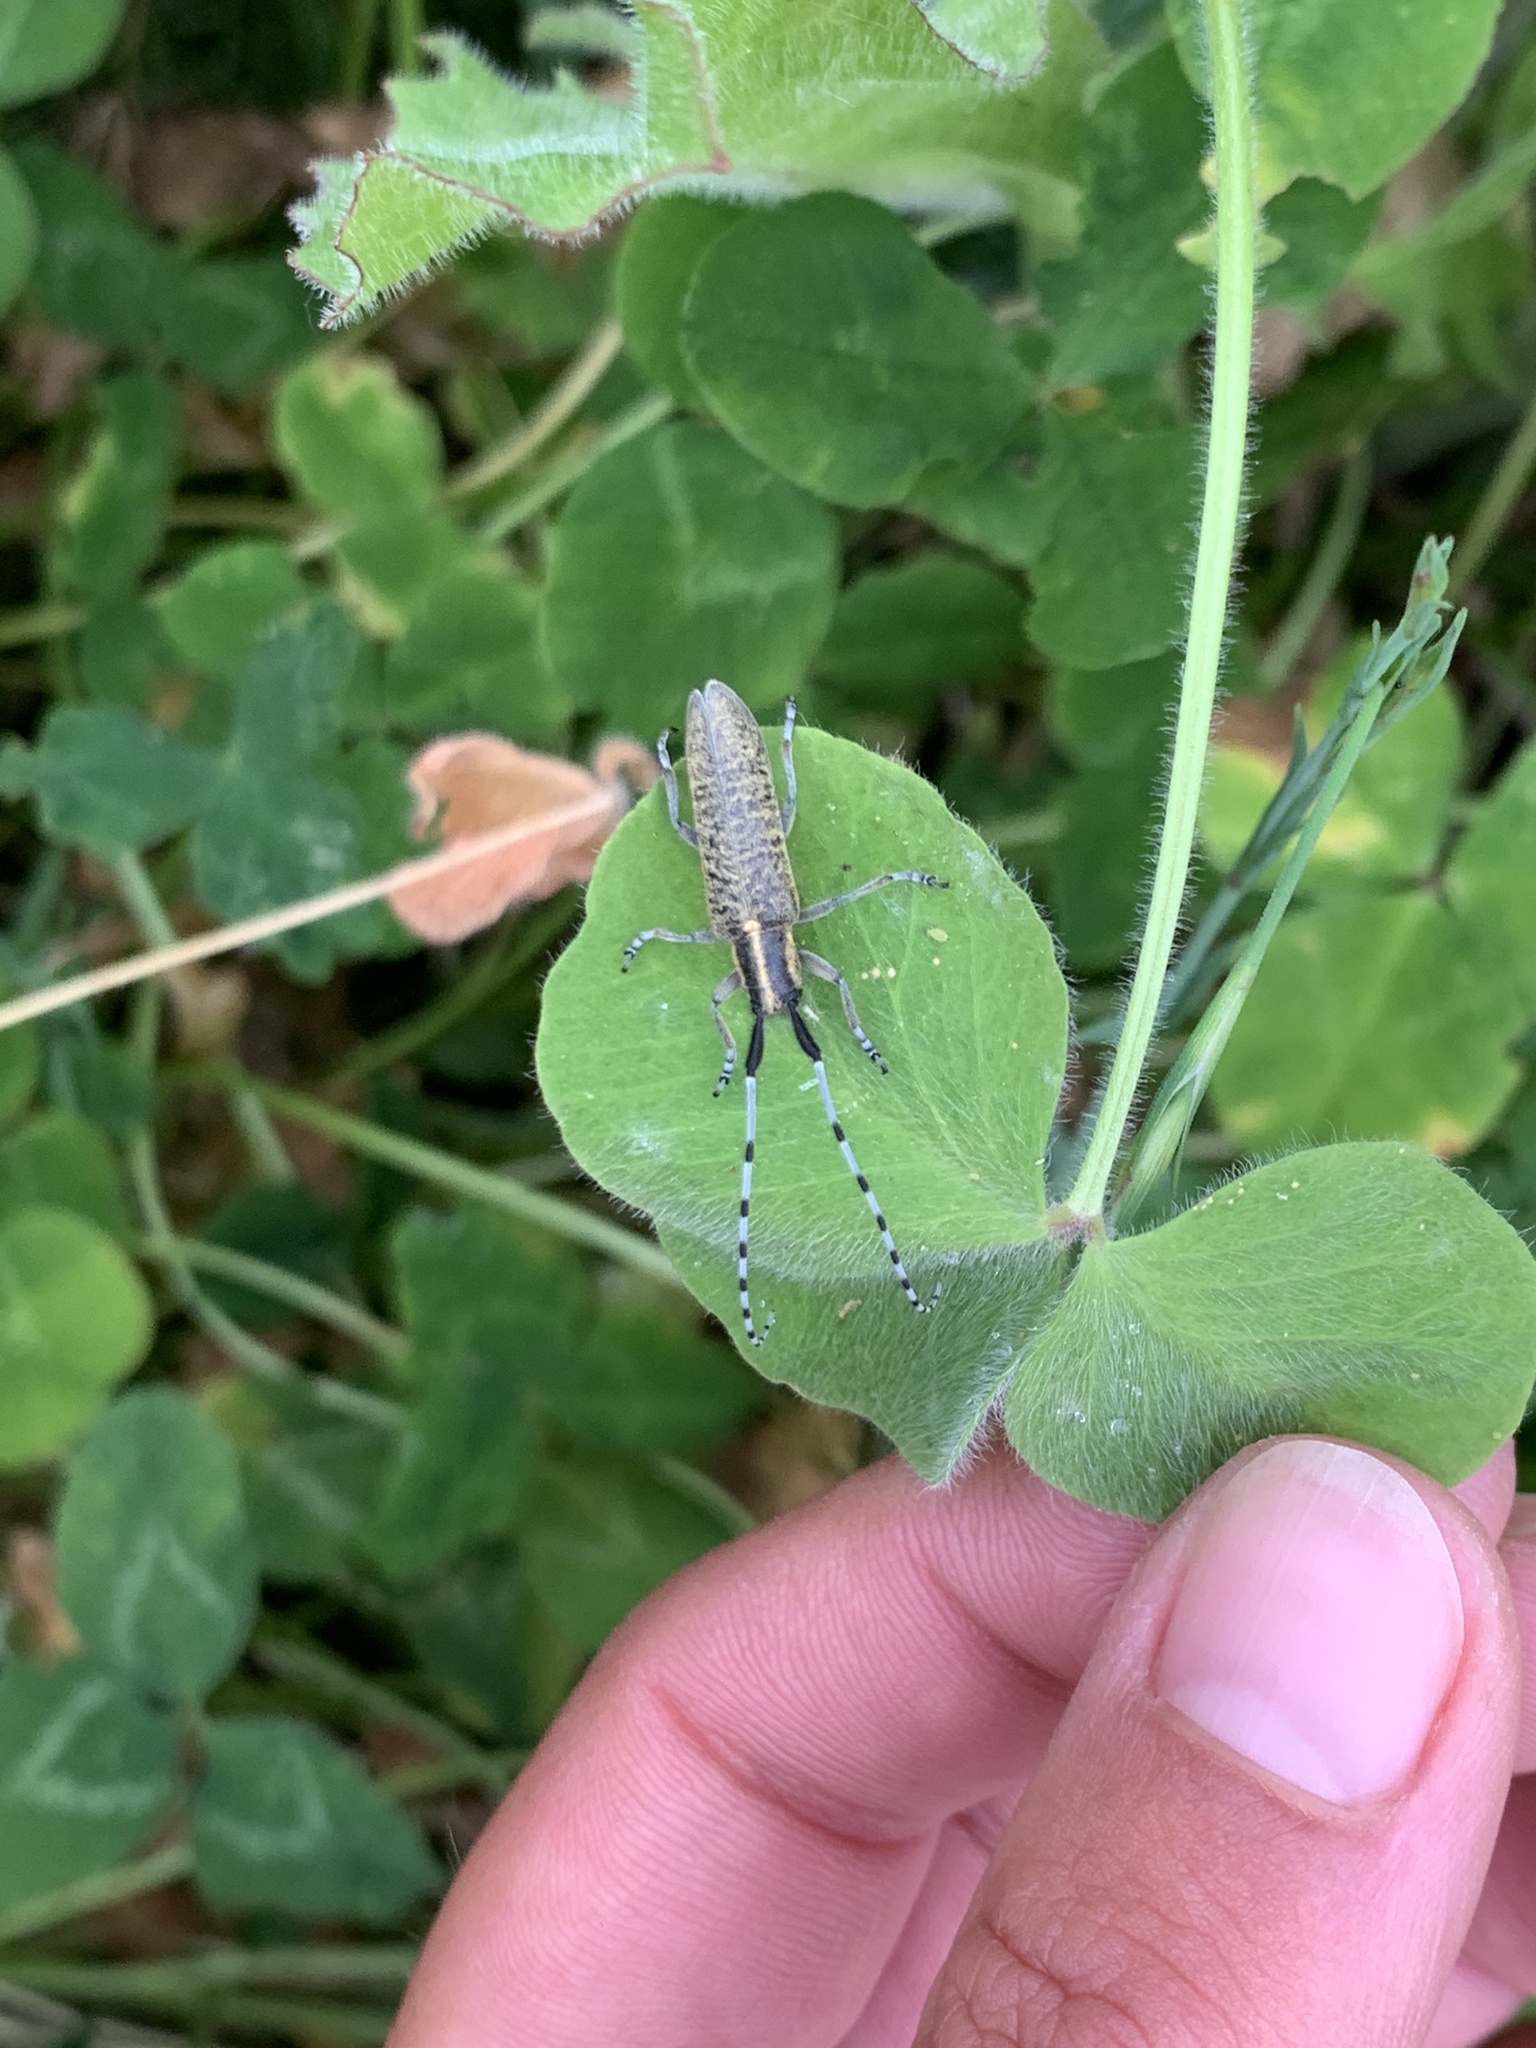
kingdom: Animalia
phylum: Arthropoda
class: Insecta
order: Coleoptera
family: Cerambycidae
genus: Agapanthia
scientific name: Agapanthia villosoviridescens
